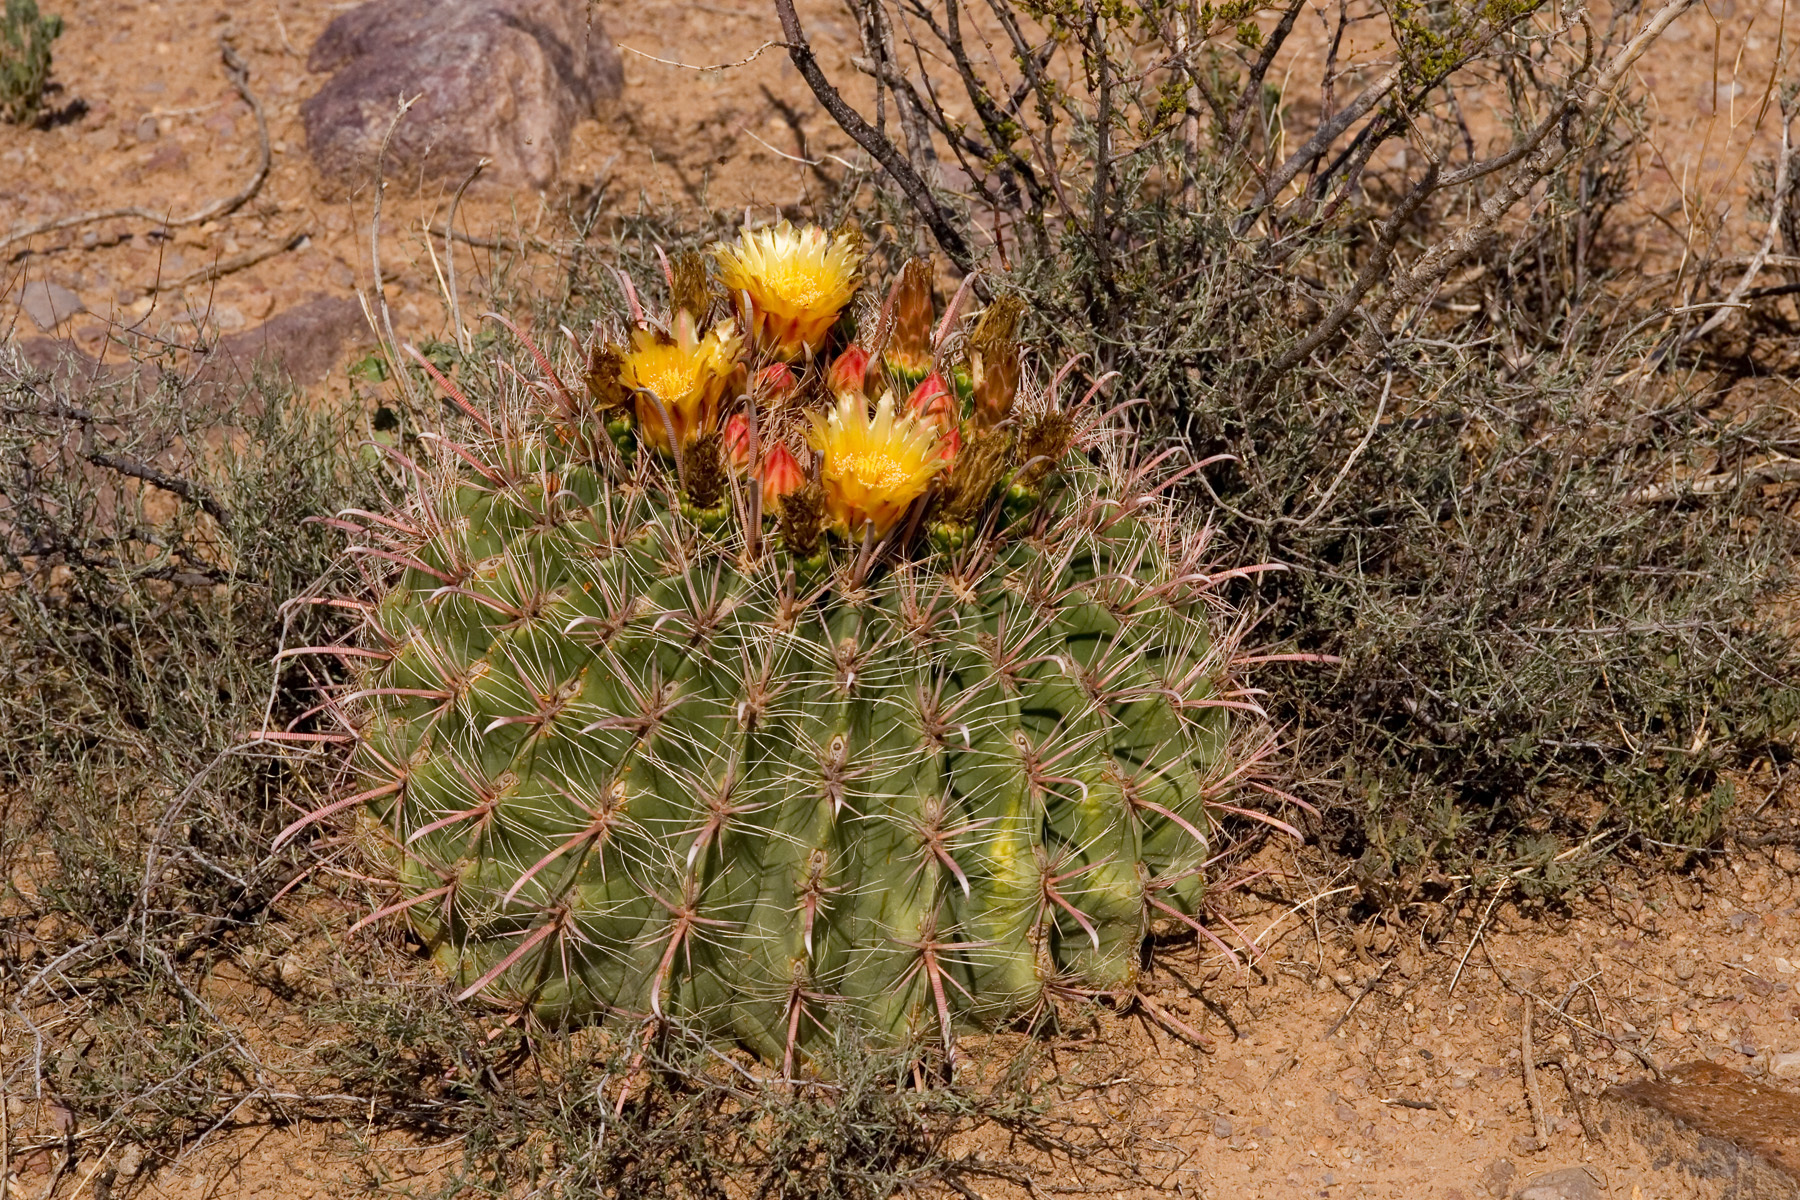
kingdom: Plantae
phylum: Tracheophyta
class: Magnoliopsida
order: Caryophyllales
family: Cactaceae
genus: Ferocactus
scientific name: Ferocactus wislizeni
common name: Candy barrel cactus
